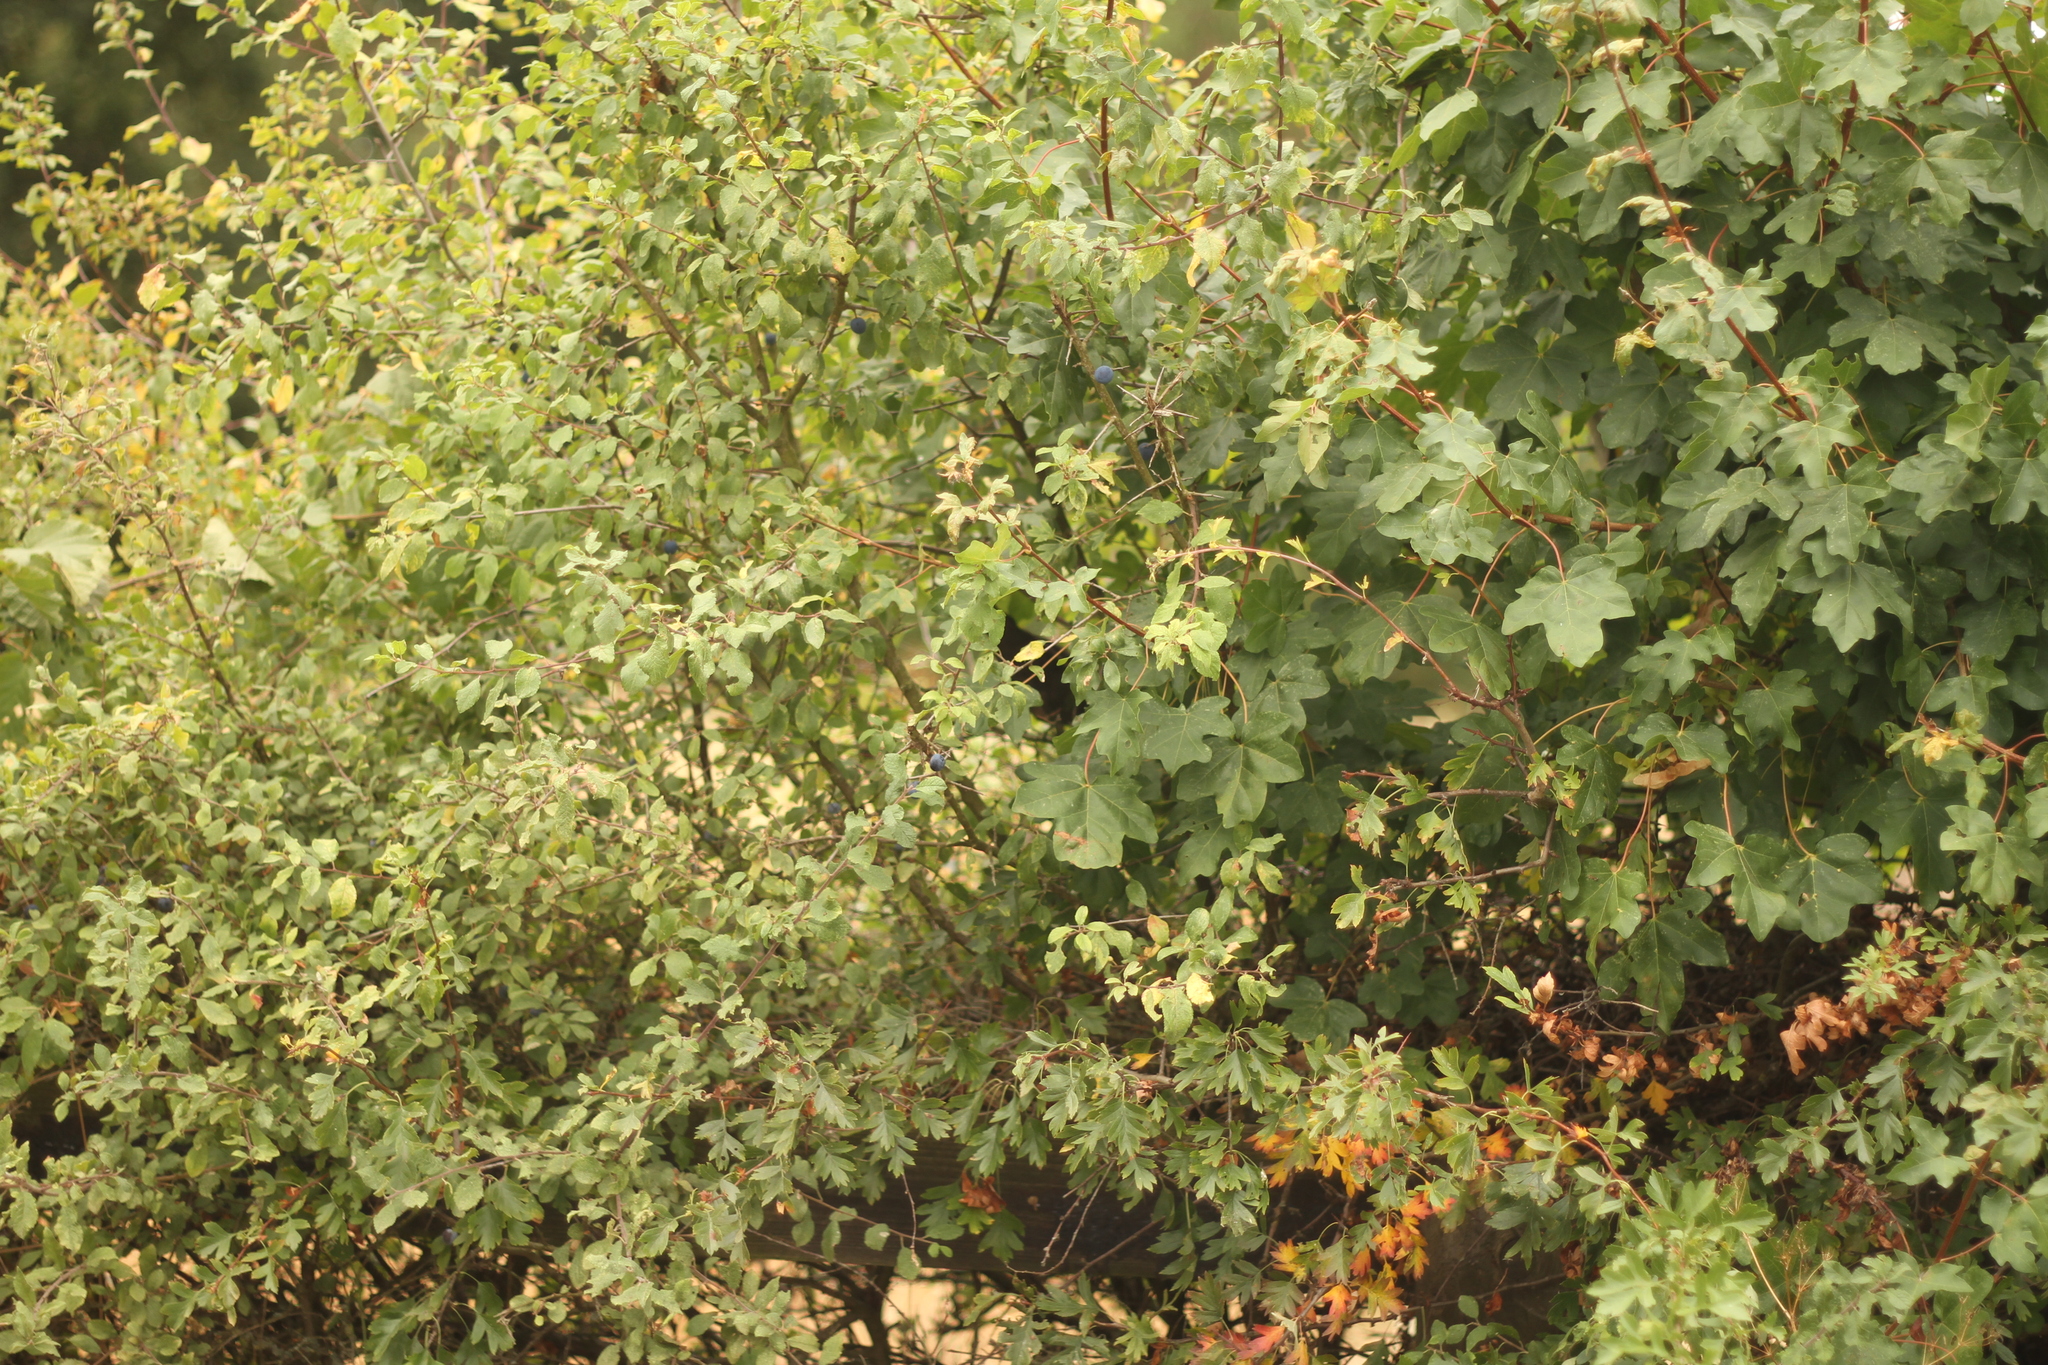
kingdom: Plantae
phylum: Tracheophyta
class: Magnoliopsida
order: Sapindales
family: Sapindaceae
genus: Acer
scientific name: Acer campestre
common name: Field maple
